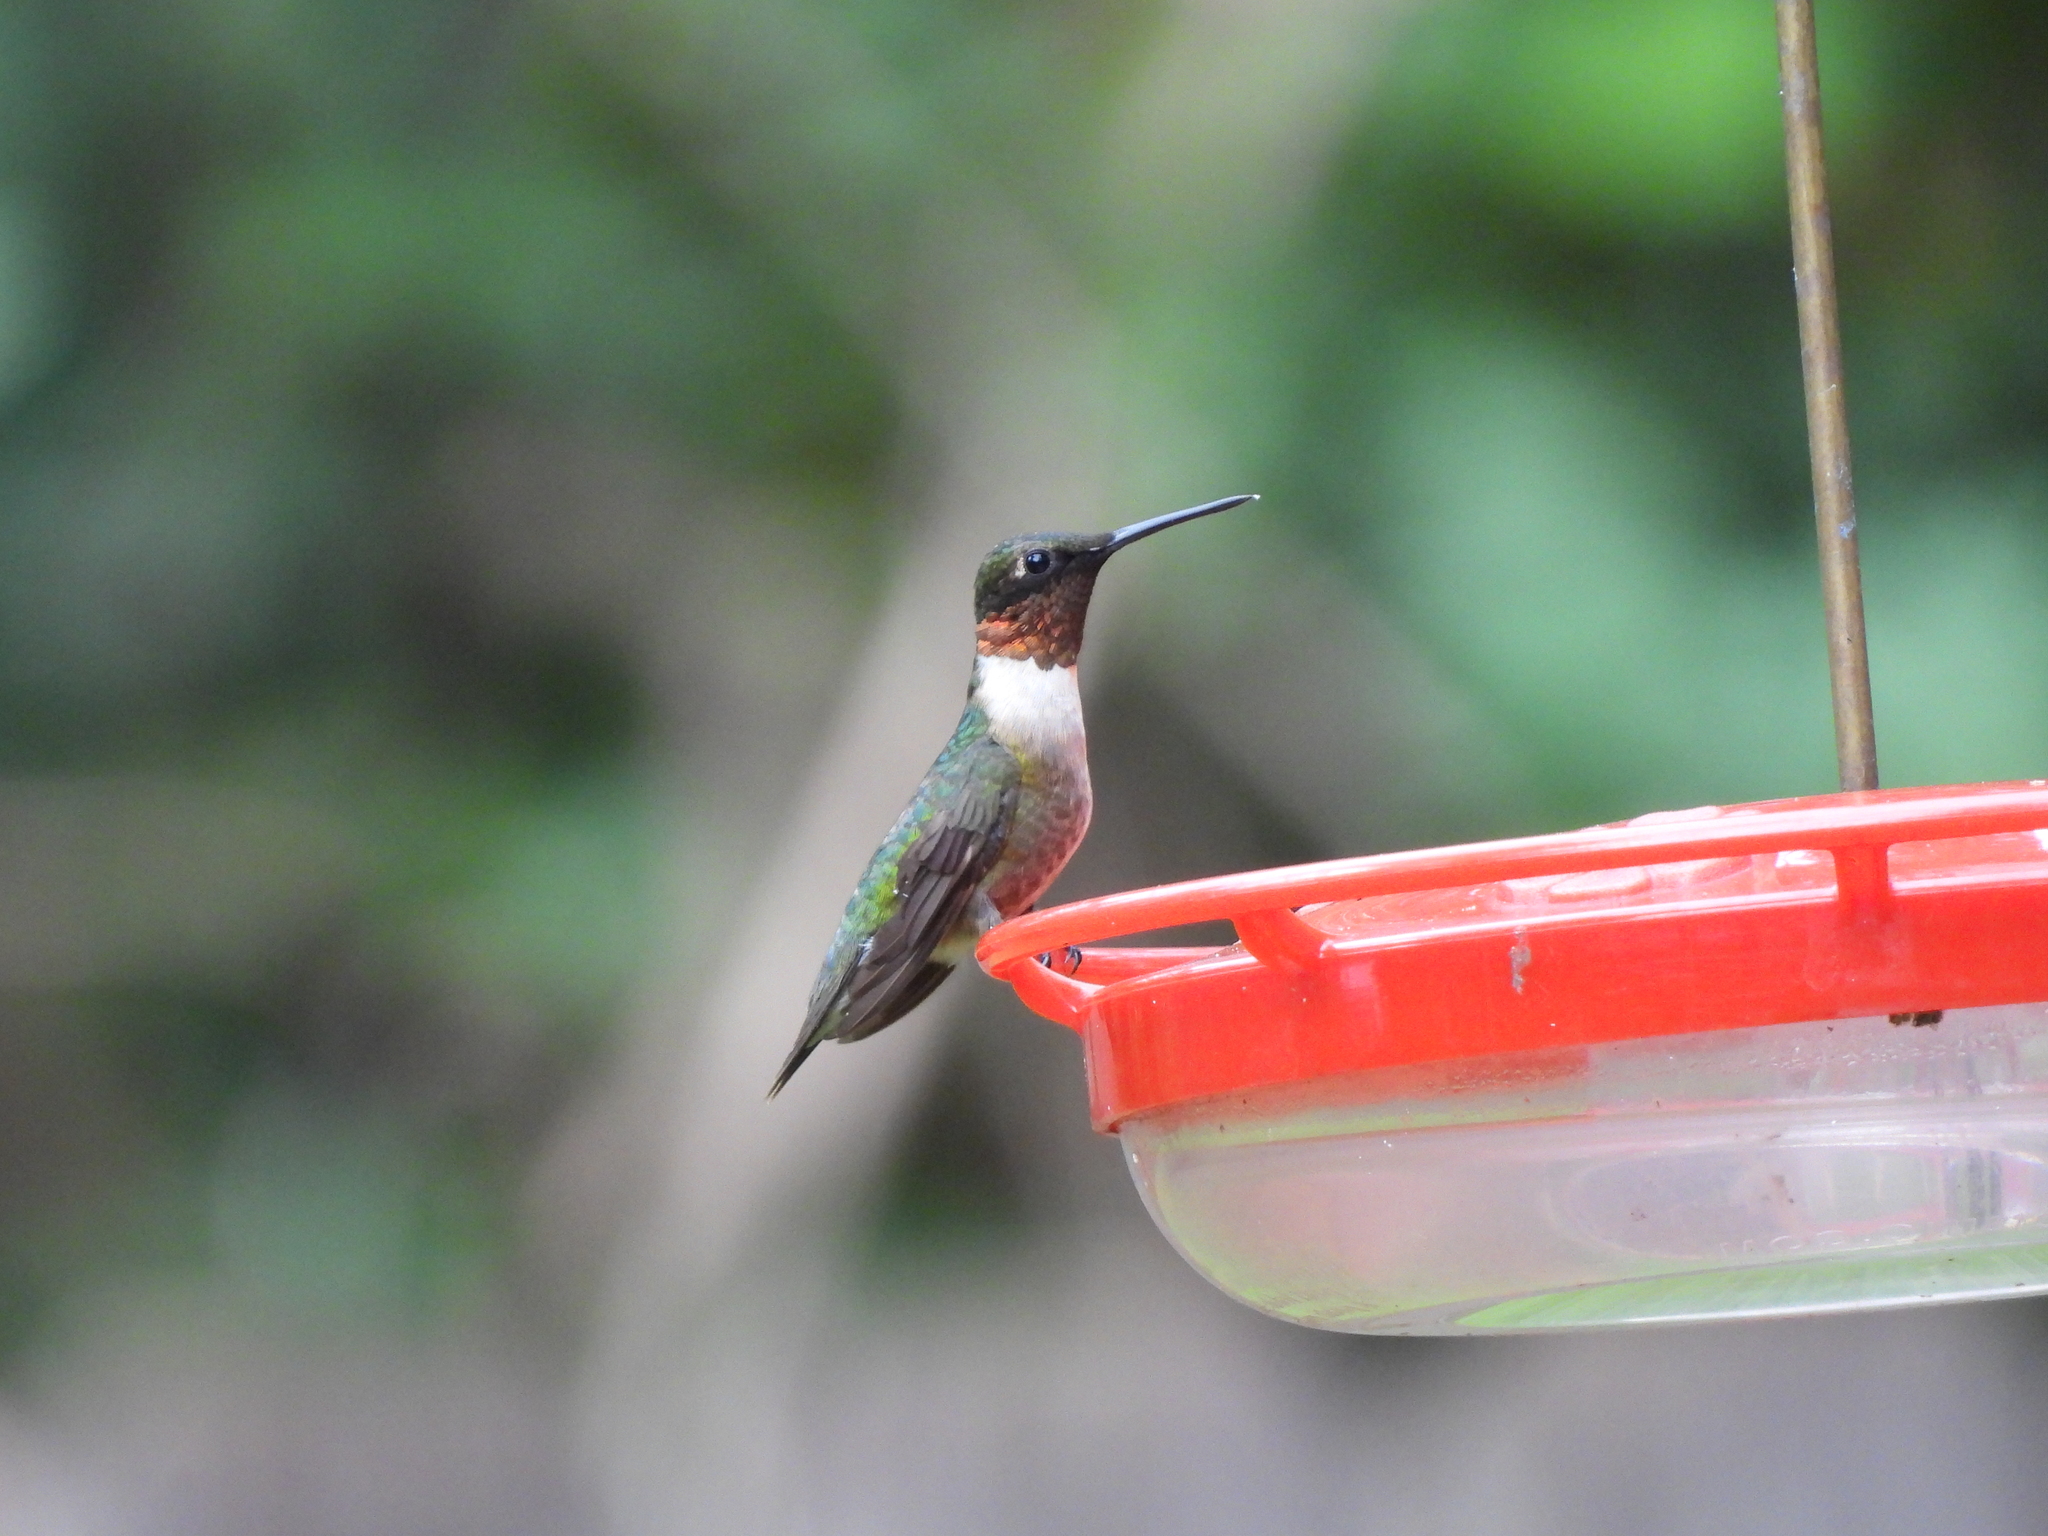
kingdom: Animalia
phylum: Chordata
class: Aves
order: Apodiformes
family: Trochilidae
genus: Archilochus
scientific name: Archilochus colubris
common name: Ruby-throated hummingbird
